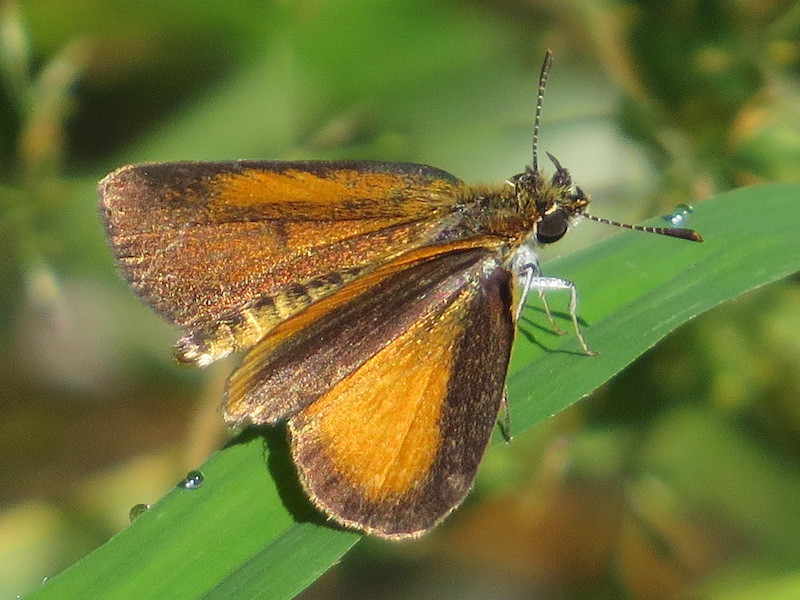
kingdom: Animalia
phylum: Arthropoda
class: Insecta
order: Lepidoptera
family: Hesperiidae
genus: Ancyloxypha
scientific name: Ancyloxypha numitor
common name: Least skipper
